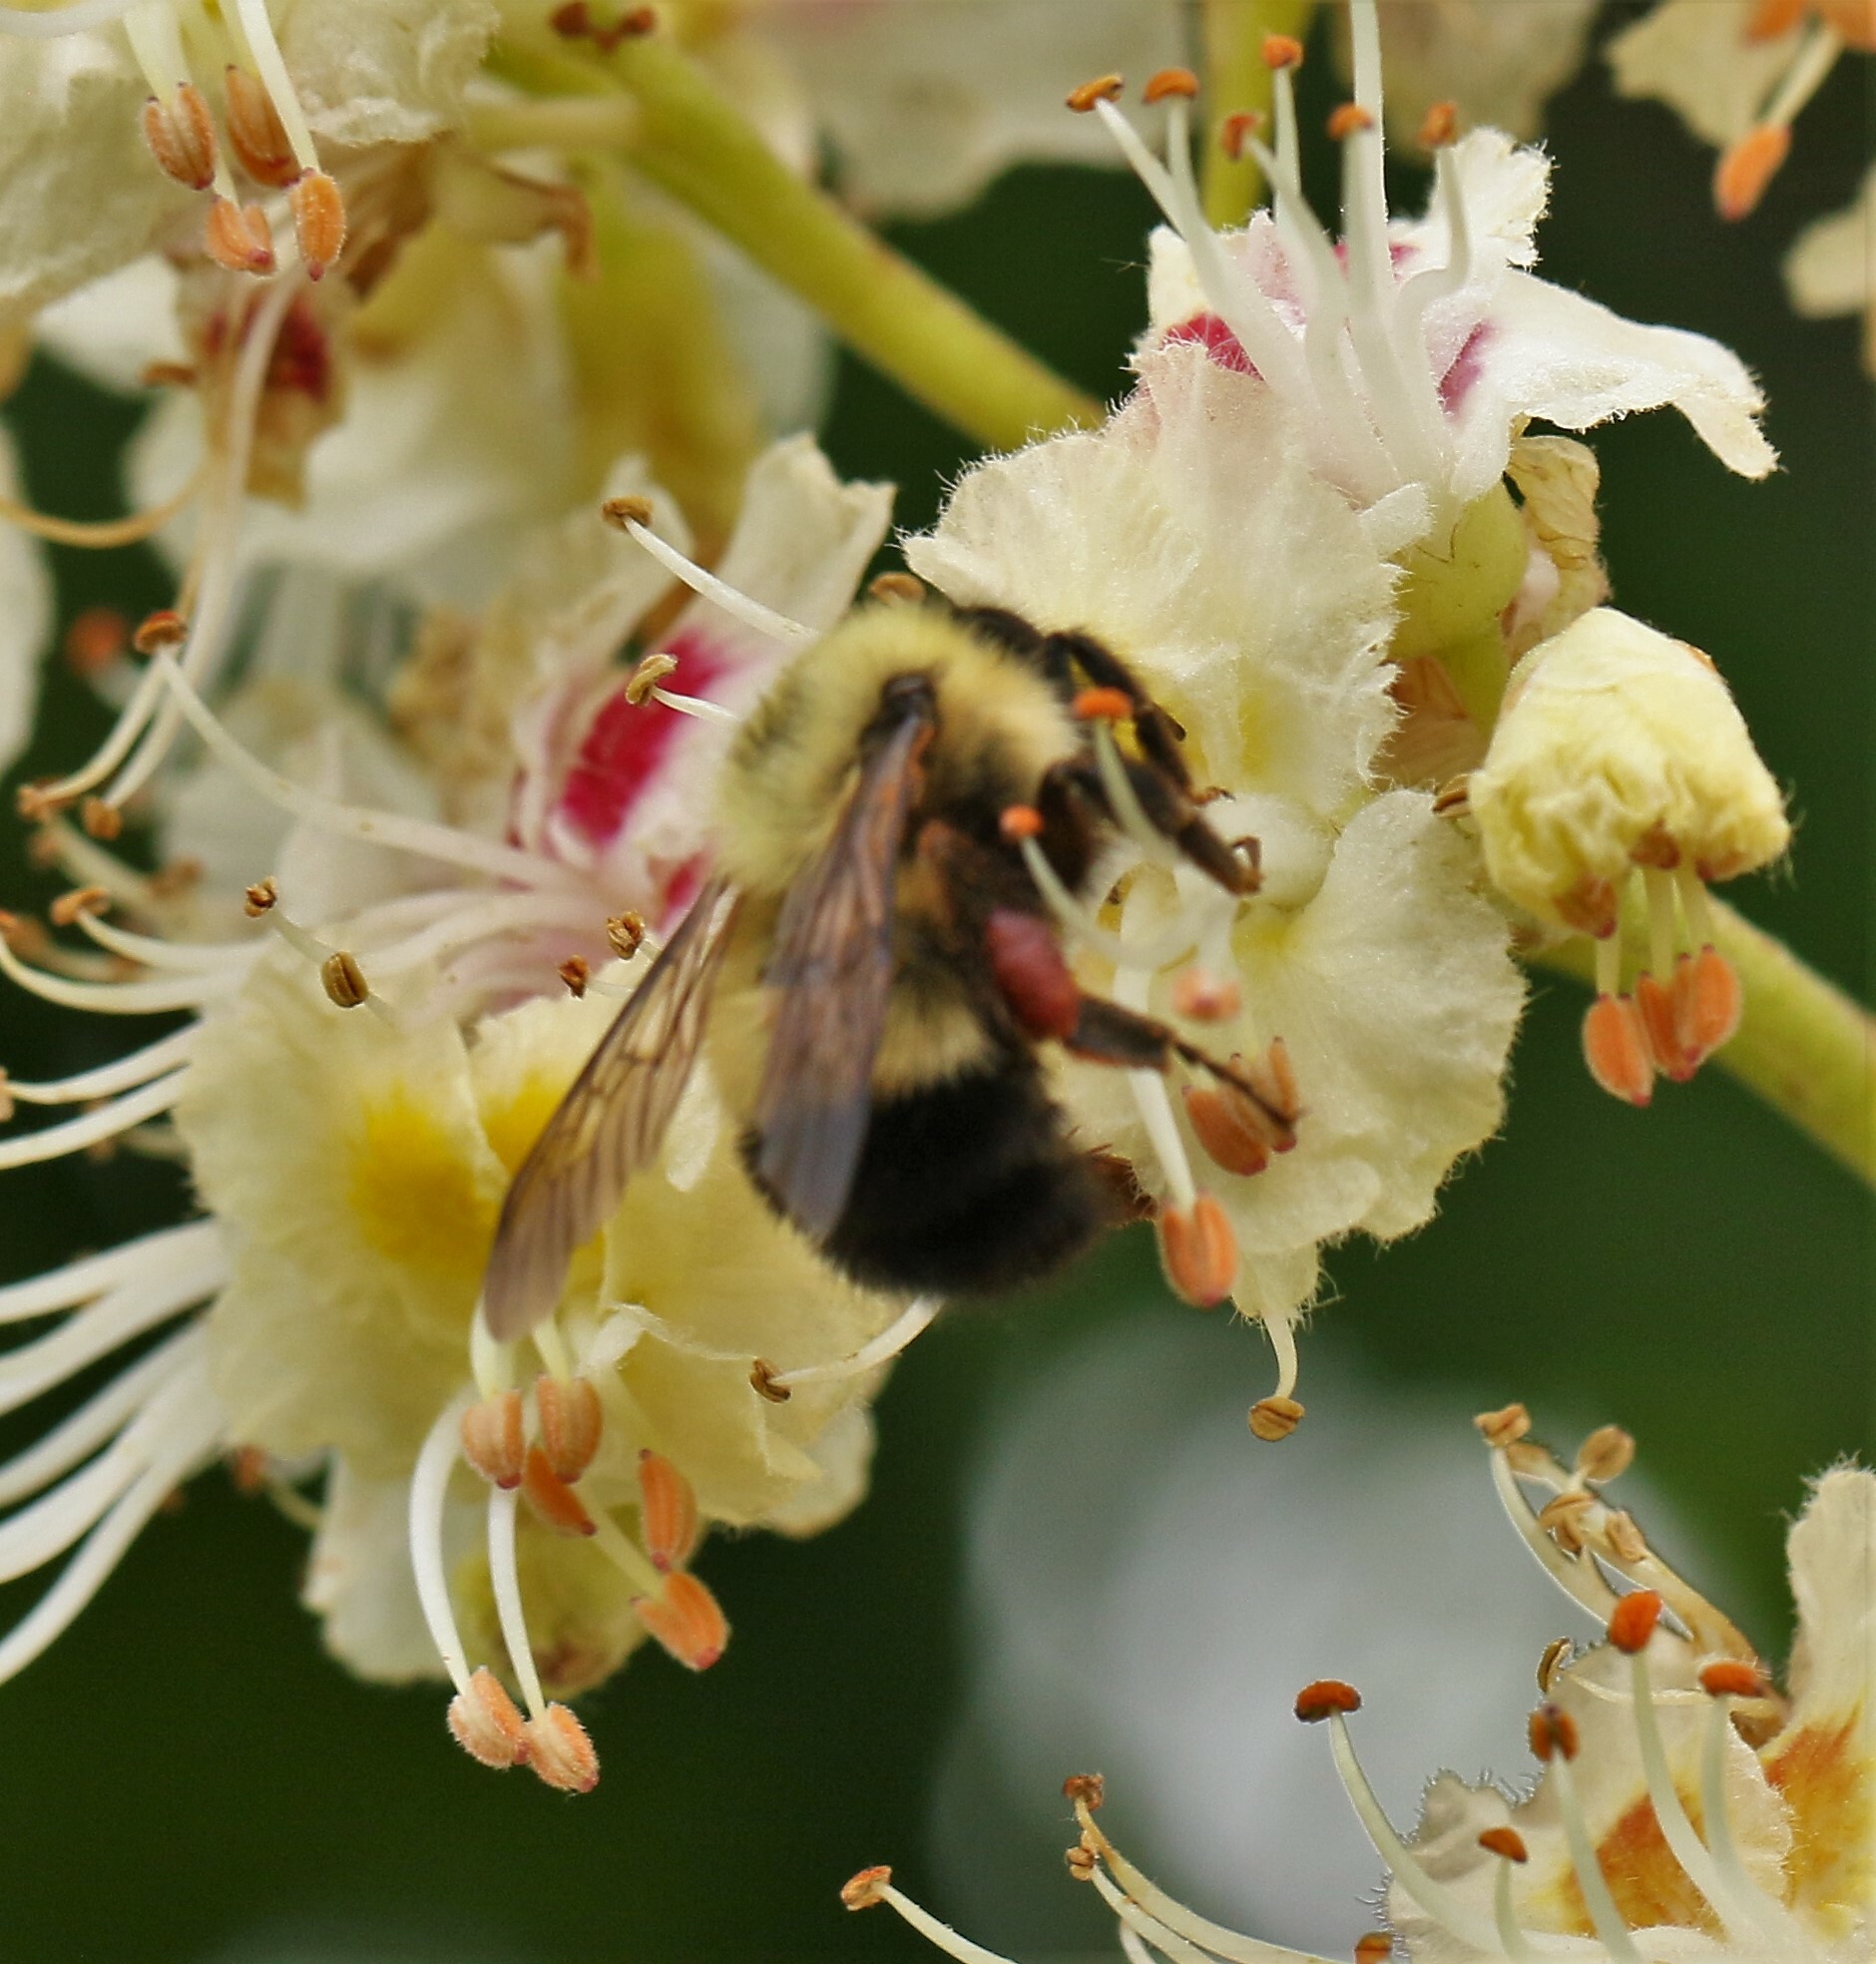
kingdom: Animalia
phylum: Arthropoda
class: Insecta
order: Hymenoptera
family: Apidae
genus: Bombus
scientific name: Bombus vagans
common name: Half-black bumble bee
